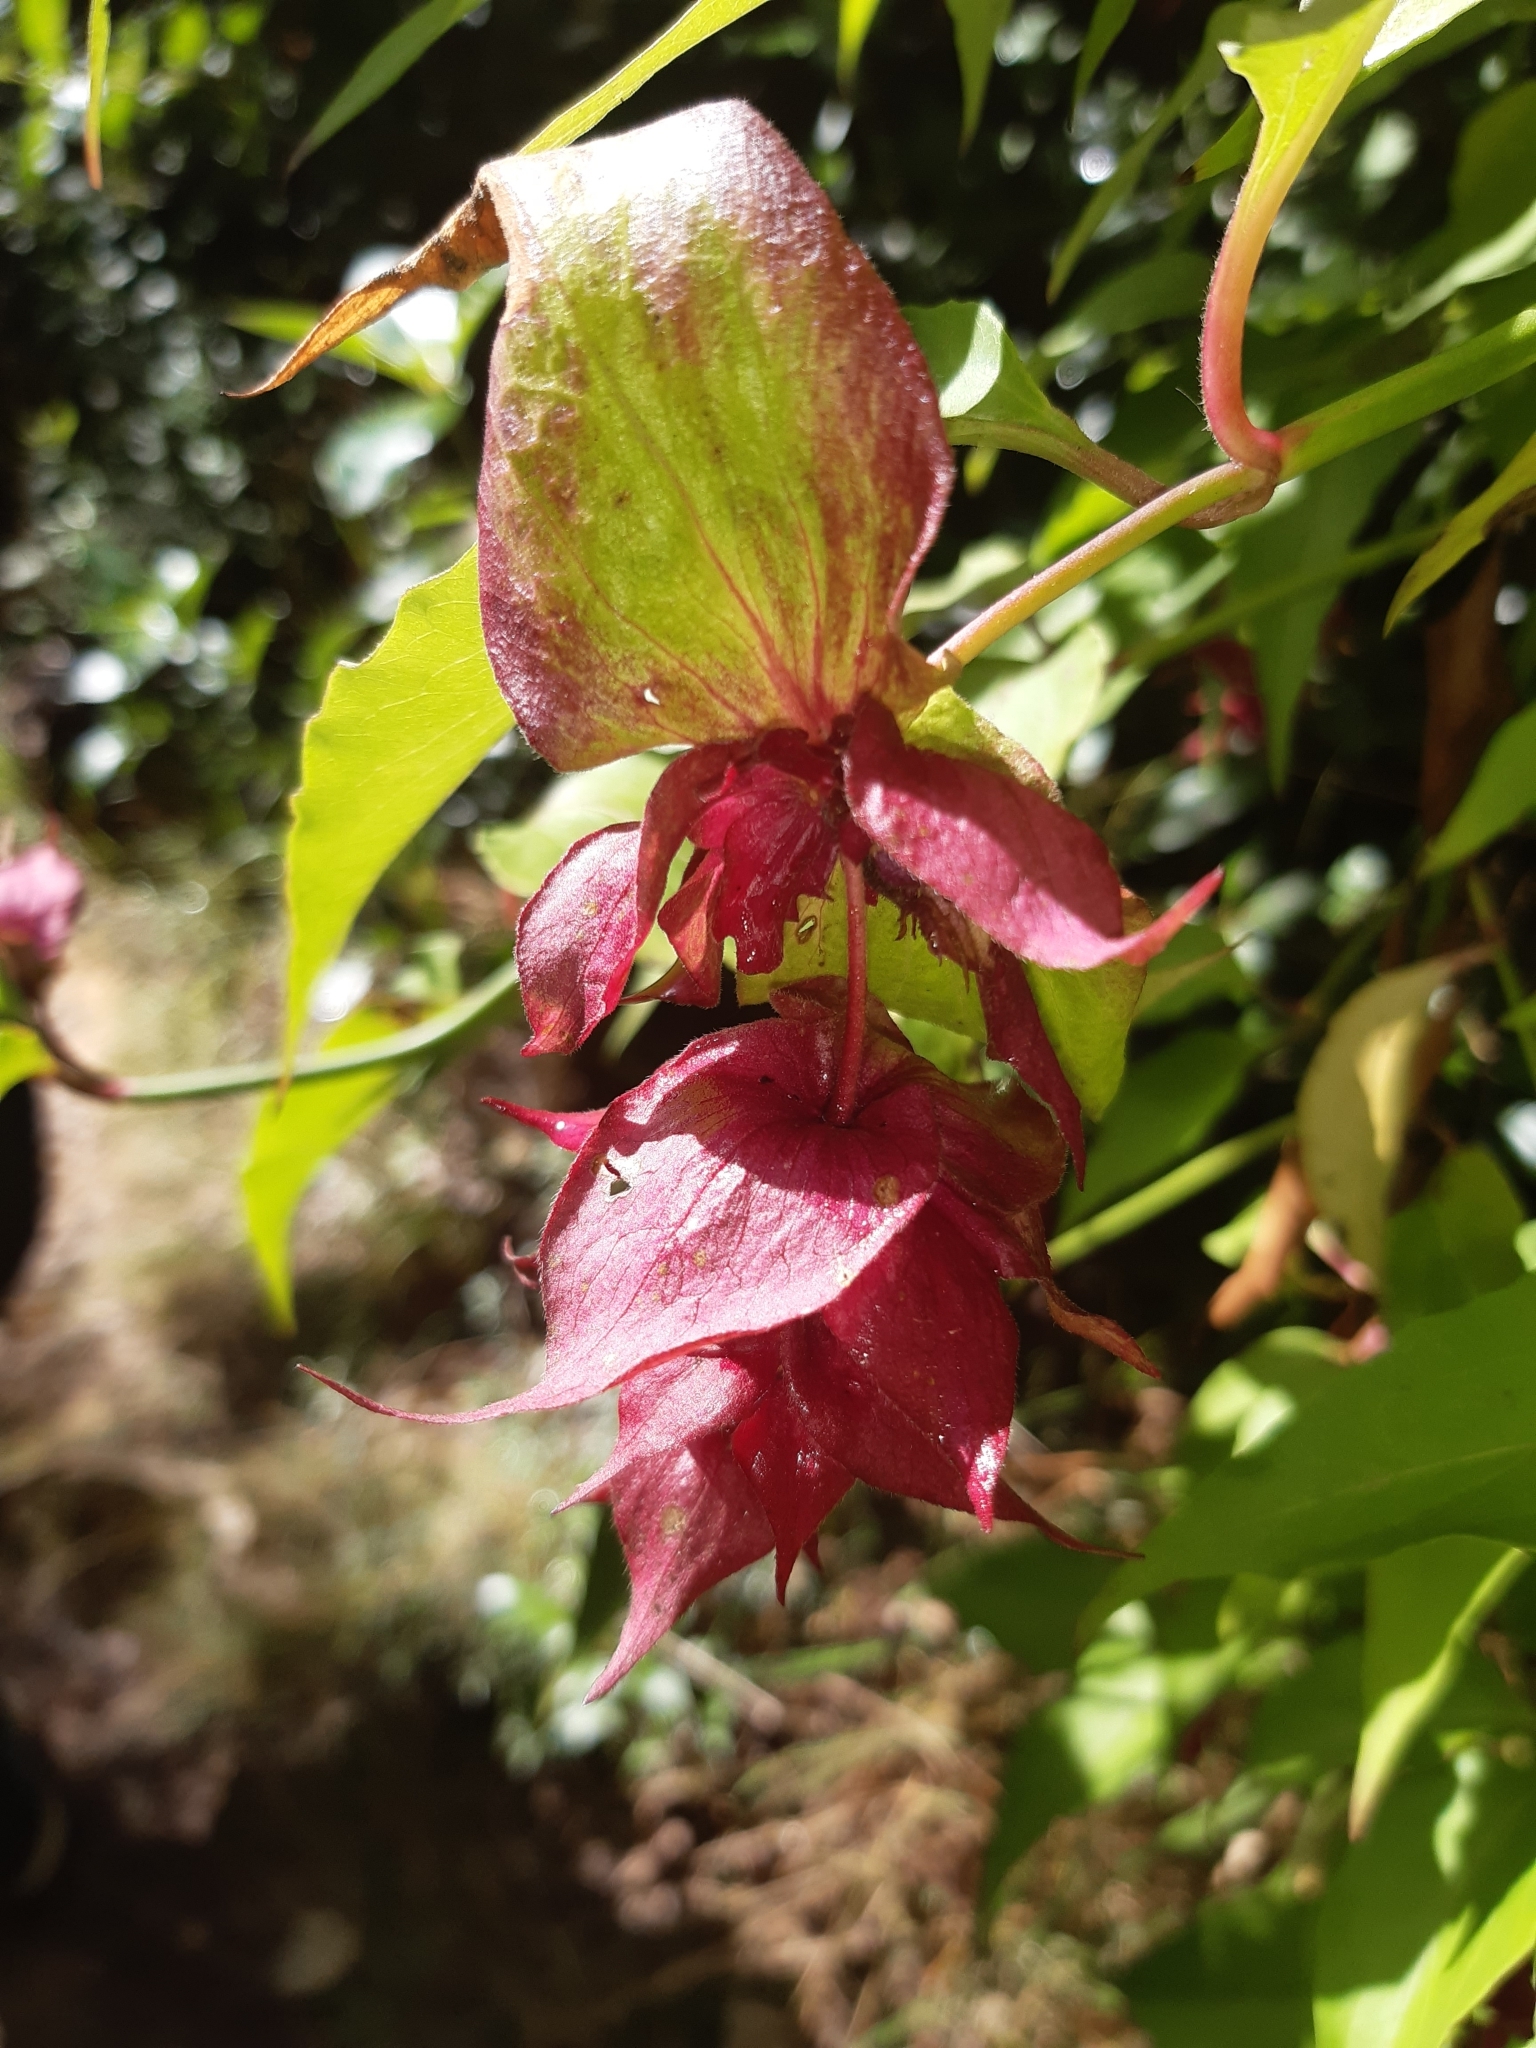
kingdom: Plantae
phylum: Tracheophyta
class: Magnoliopsida
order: Dipsacales
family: Caprifoliaceae
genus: Leycesteria
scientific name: Leycesteria formosa
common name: Himalayan honeysuckle
